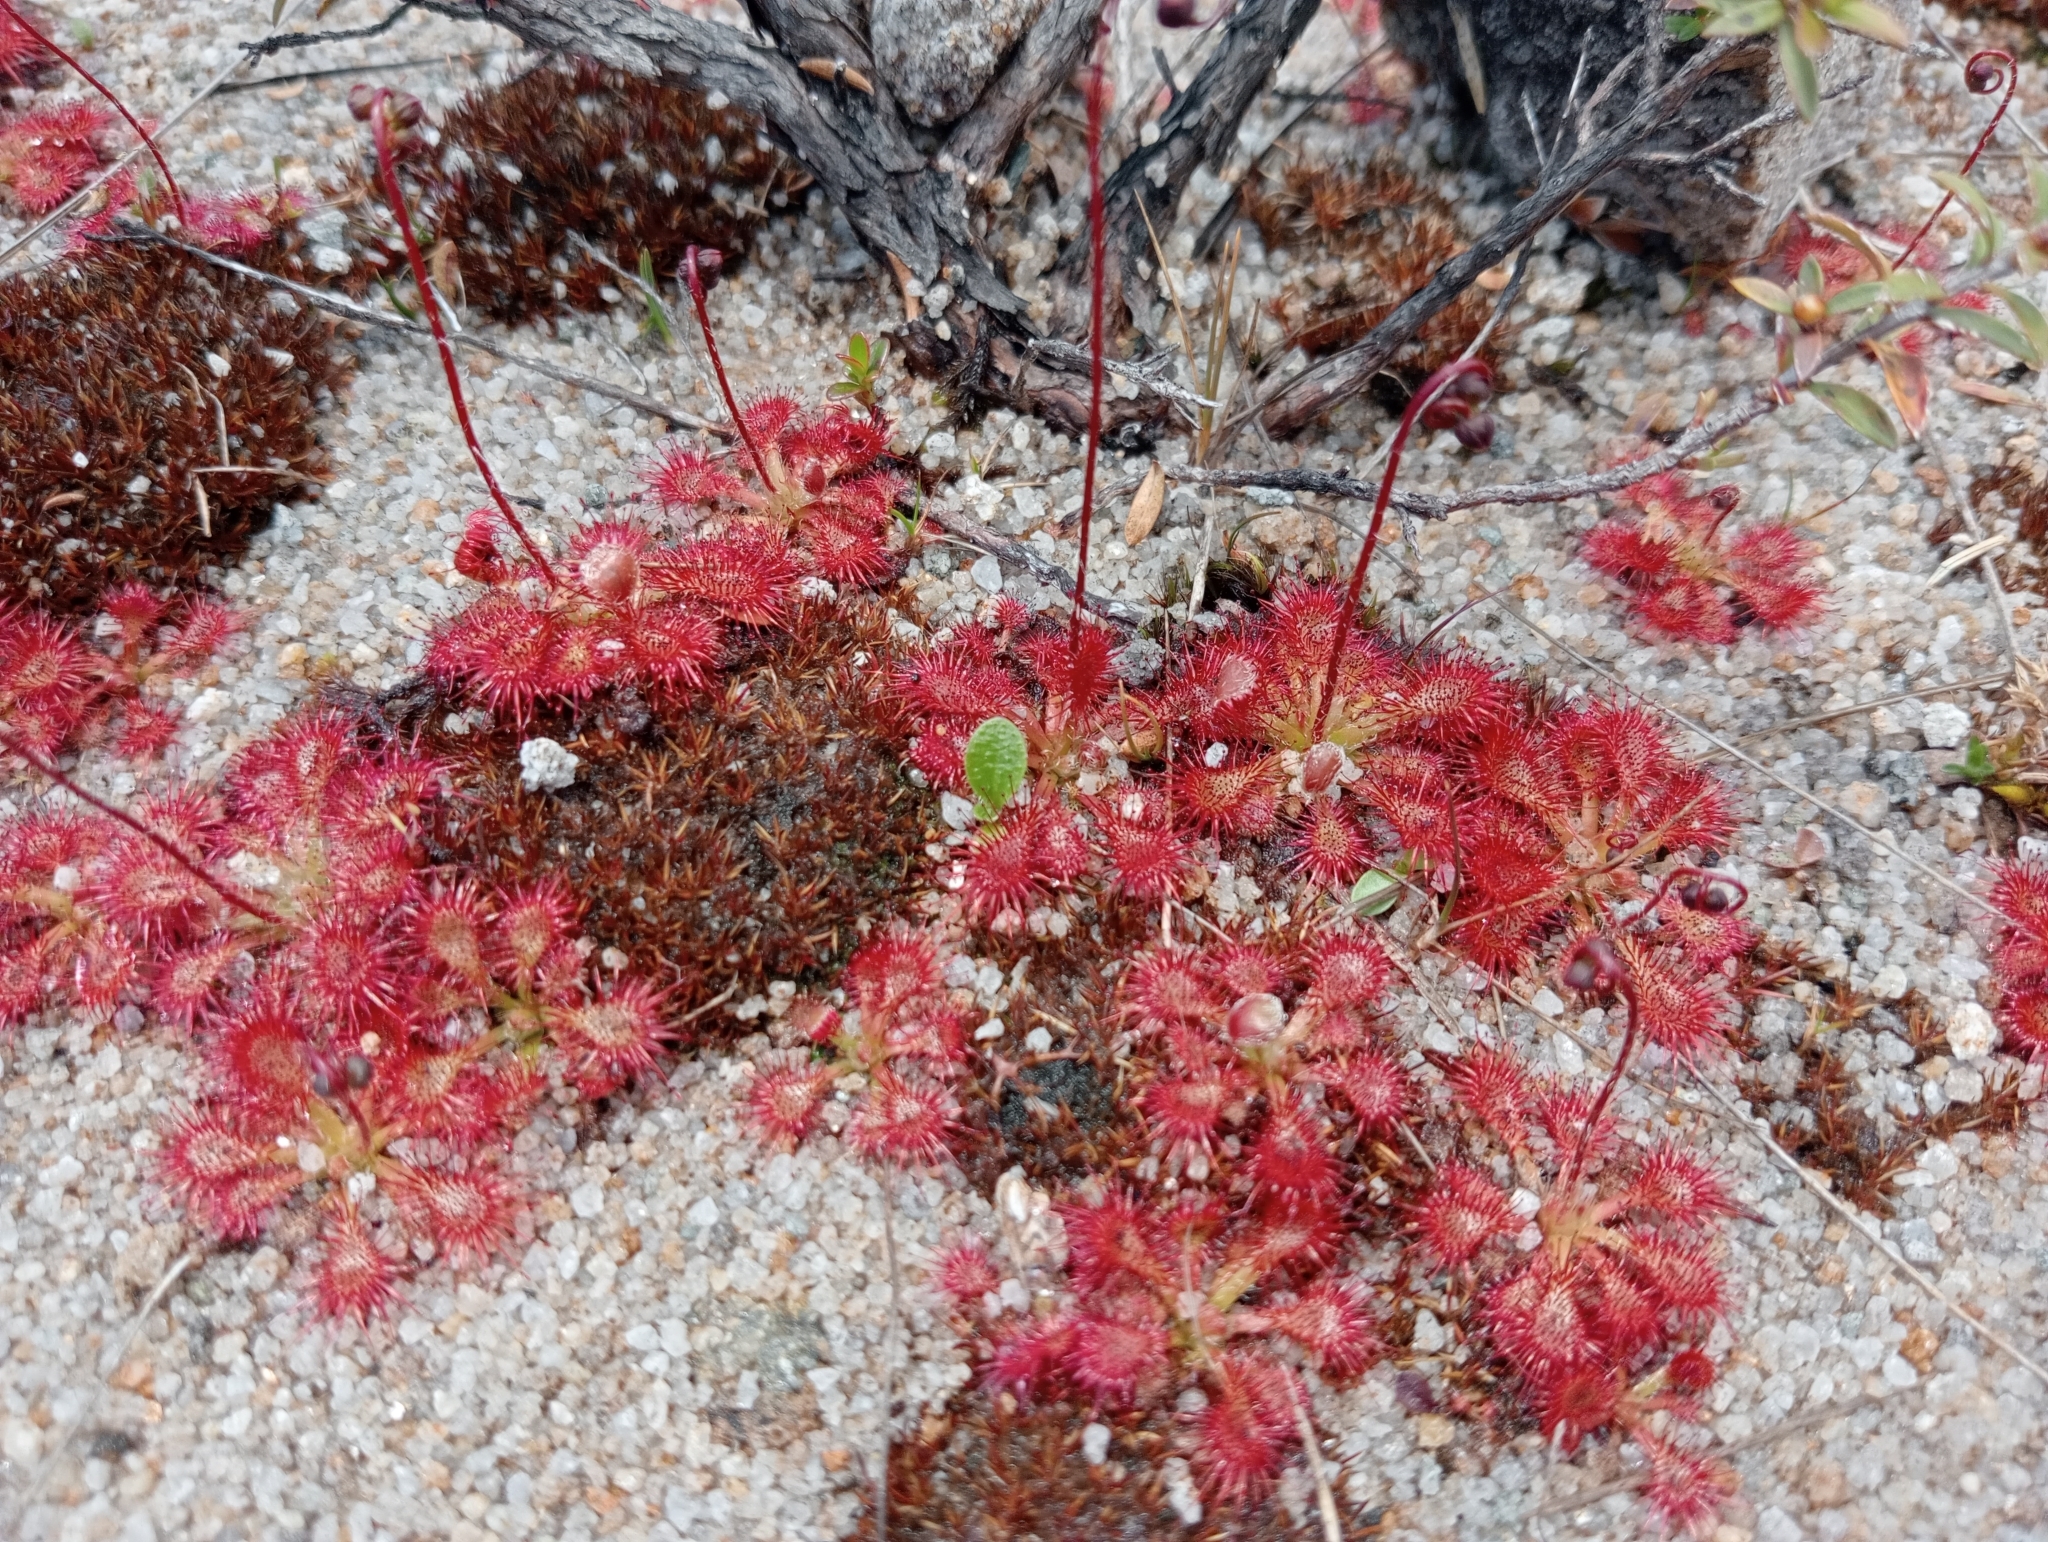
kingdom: Plantae
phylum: Tracheophyta
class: Magnoliopsida
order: Caryophyllales
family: Droseraceae
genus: Drosera
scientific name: Drosera spatulata
